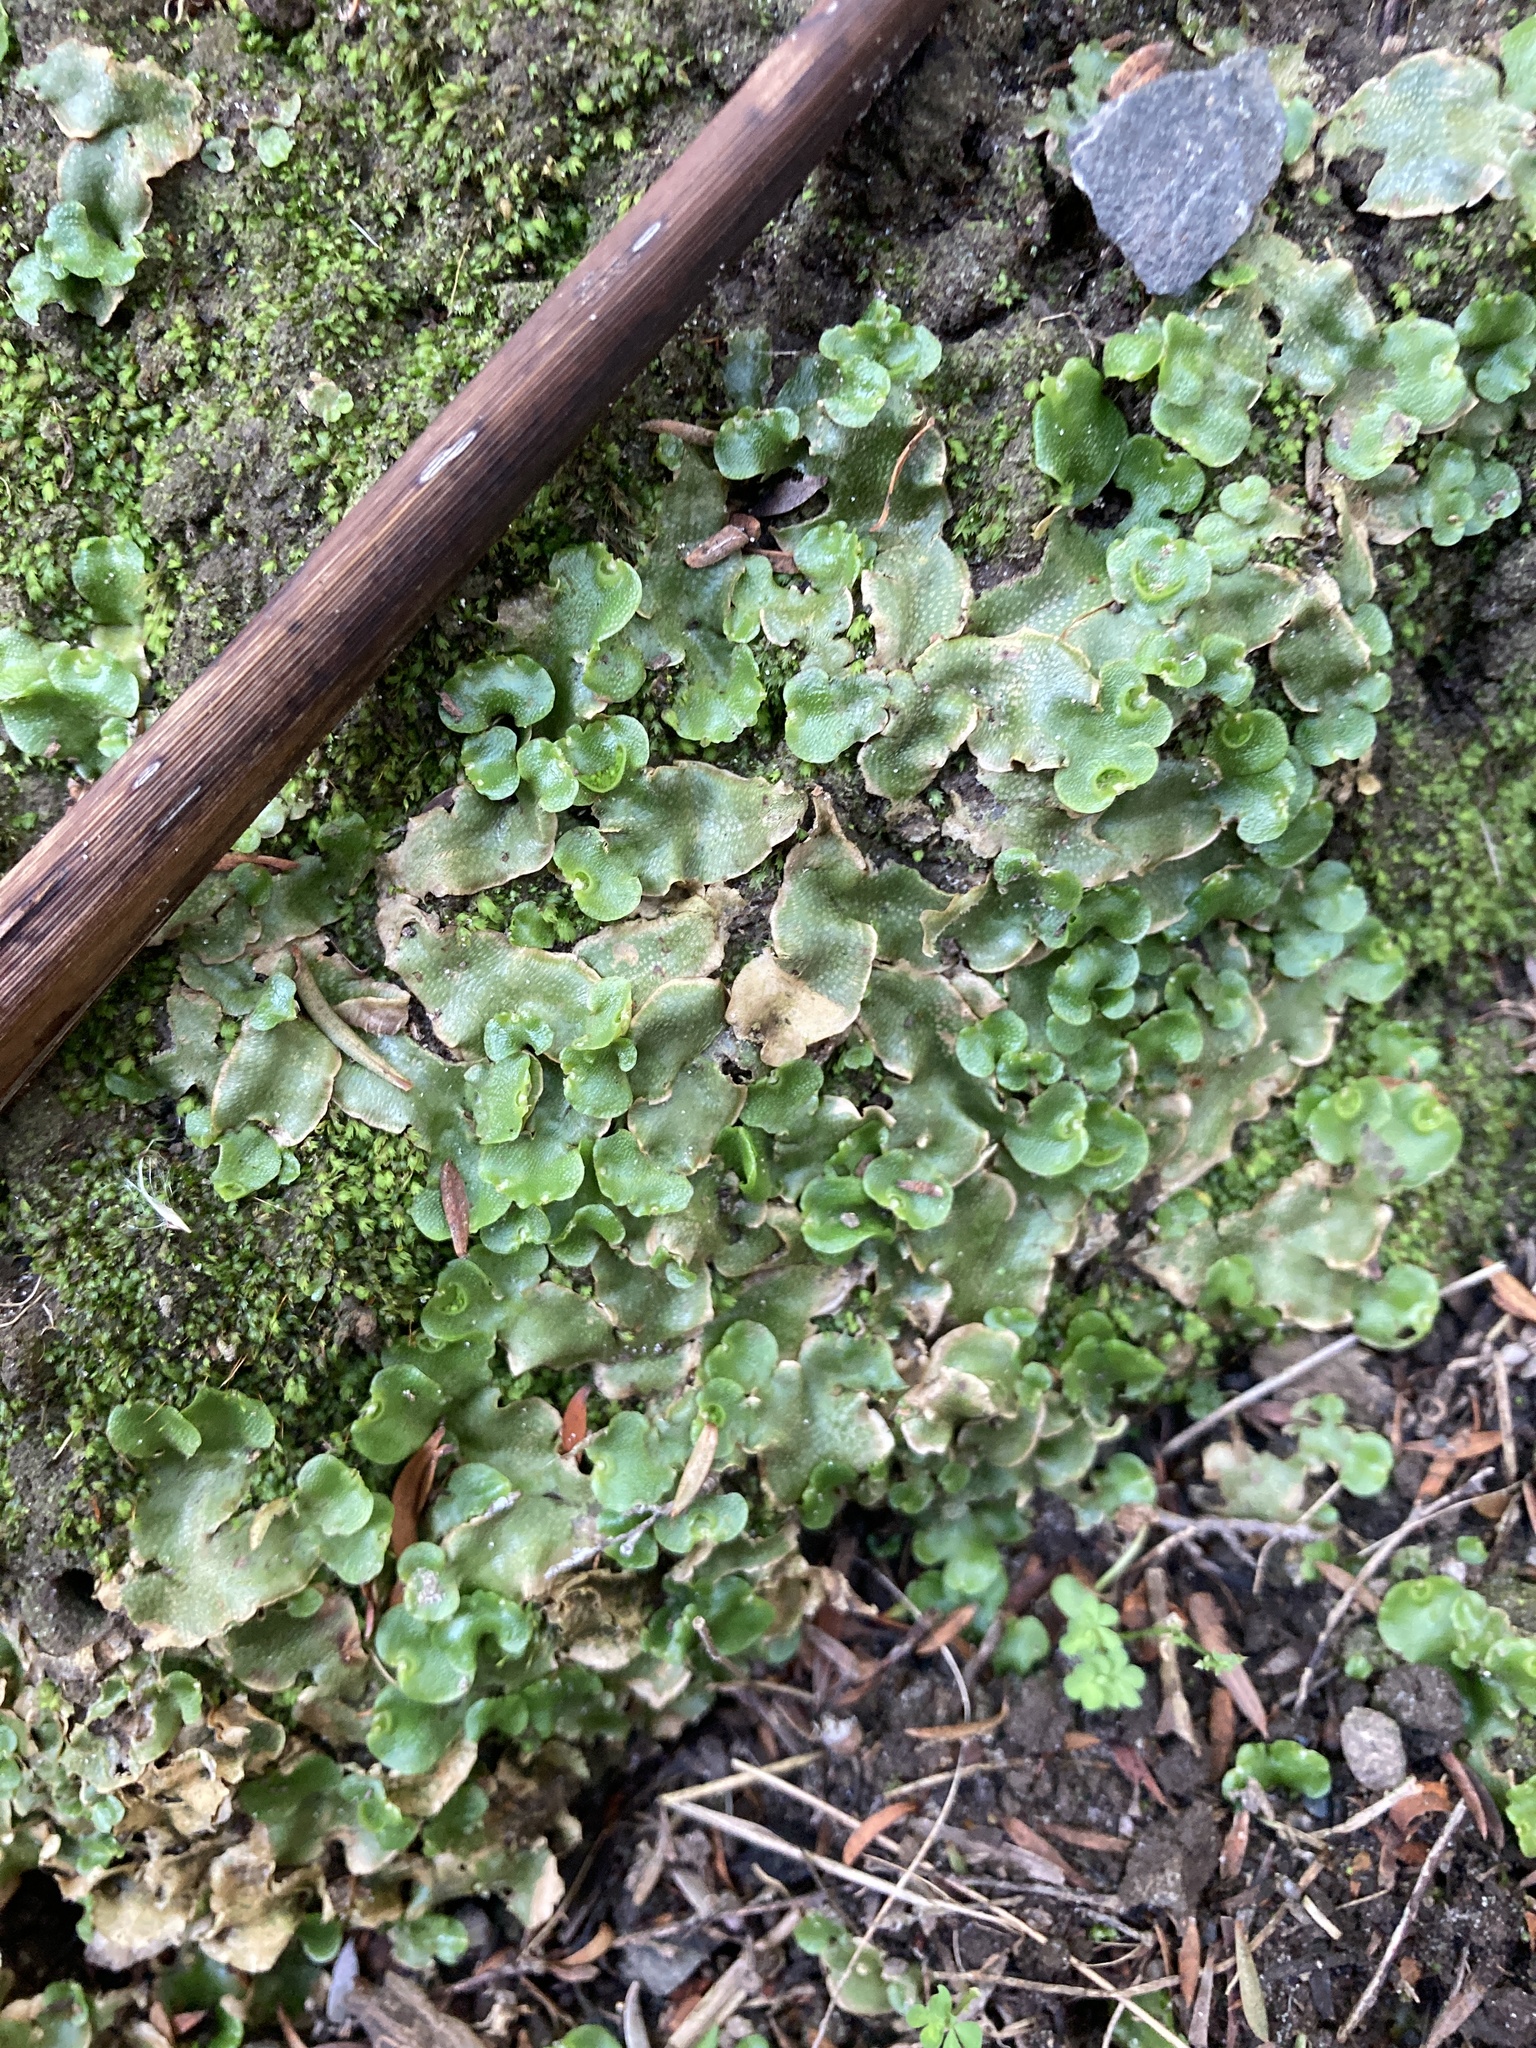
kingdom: Plantae
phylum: Marchantiophyta
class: Marchantiopsida
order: Lunulariales
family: Lunulariaceae
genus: Lunularia
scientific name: Lunularia cruciata
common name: Crescent-cup liverwort
